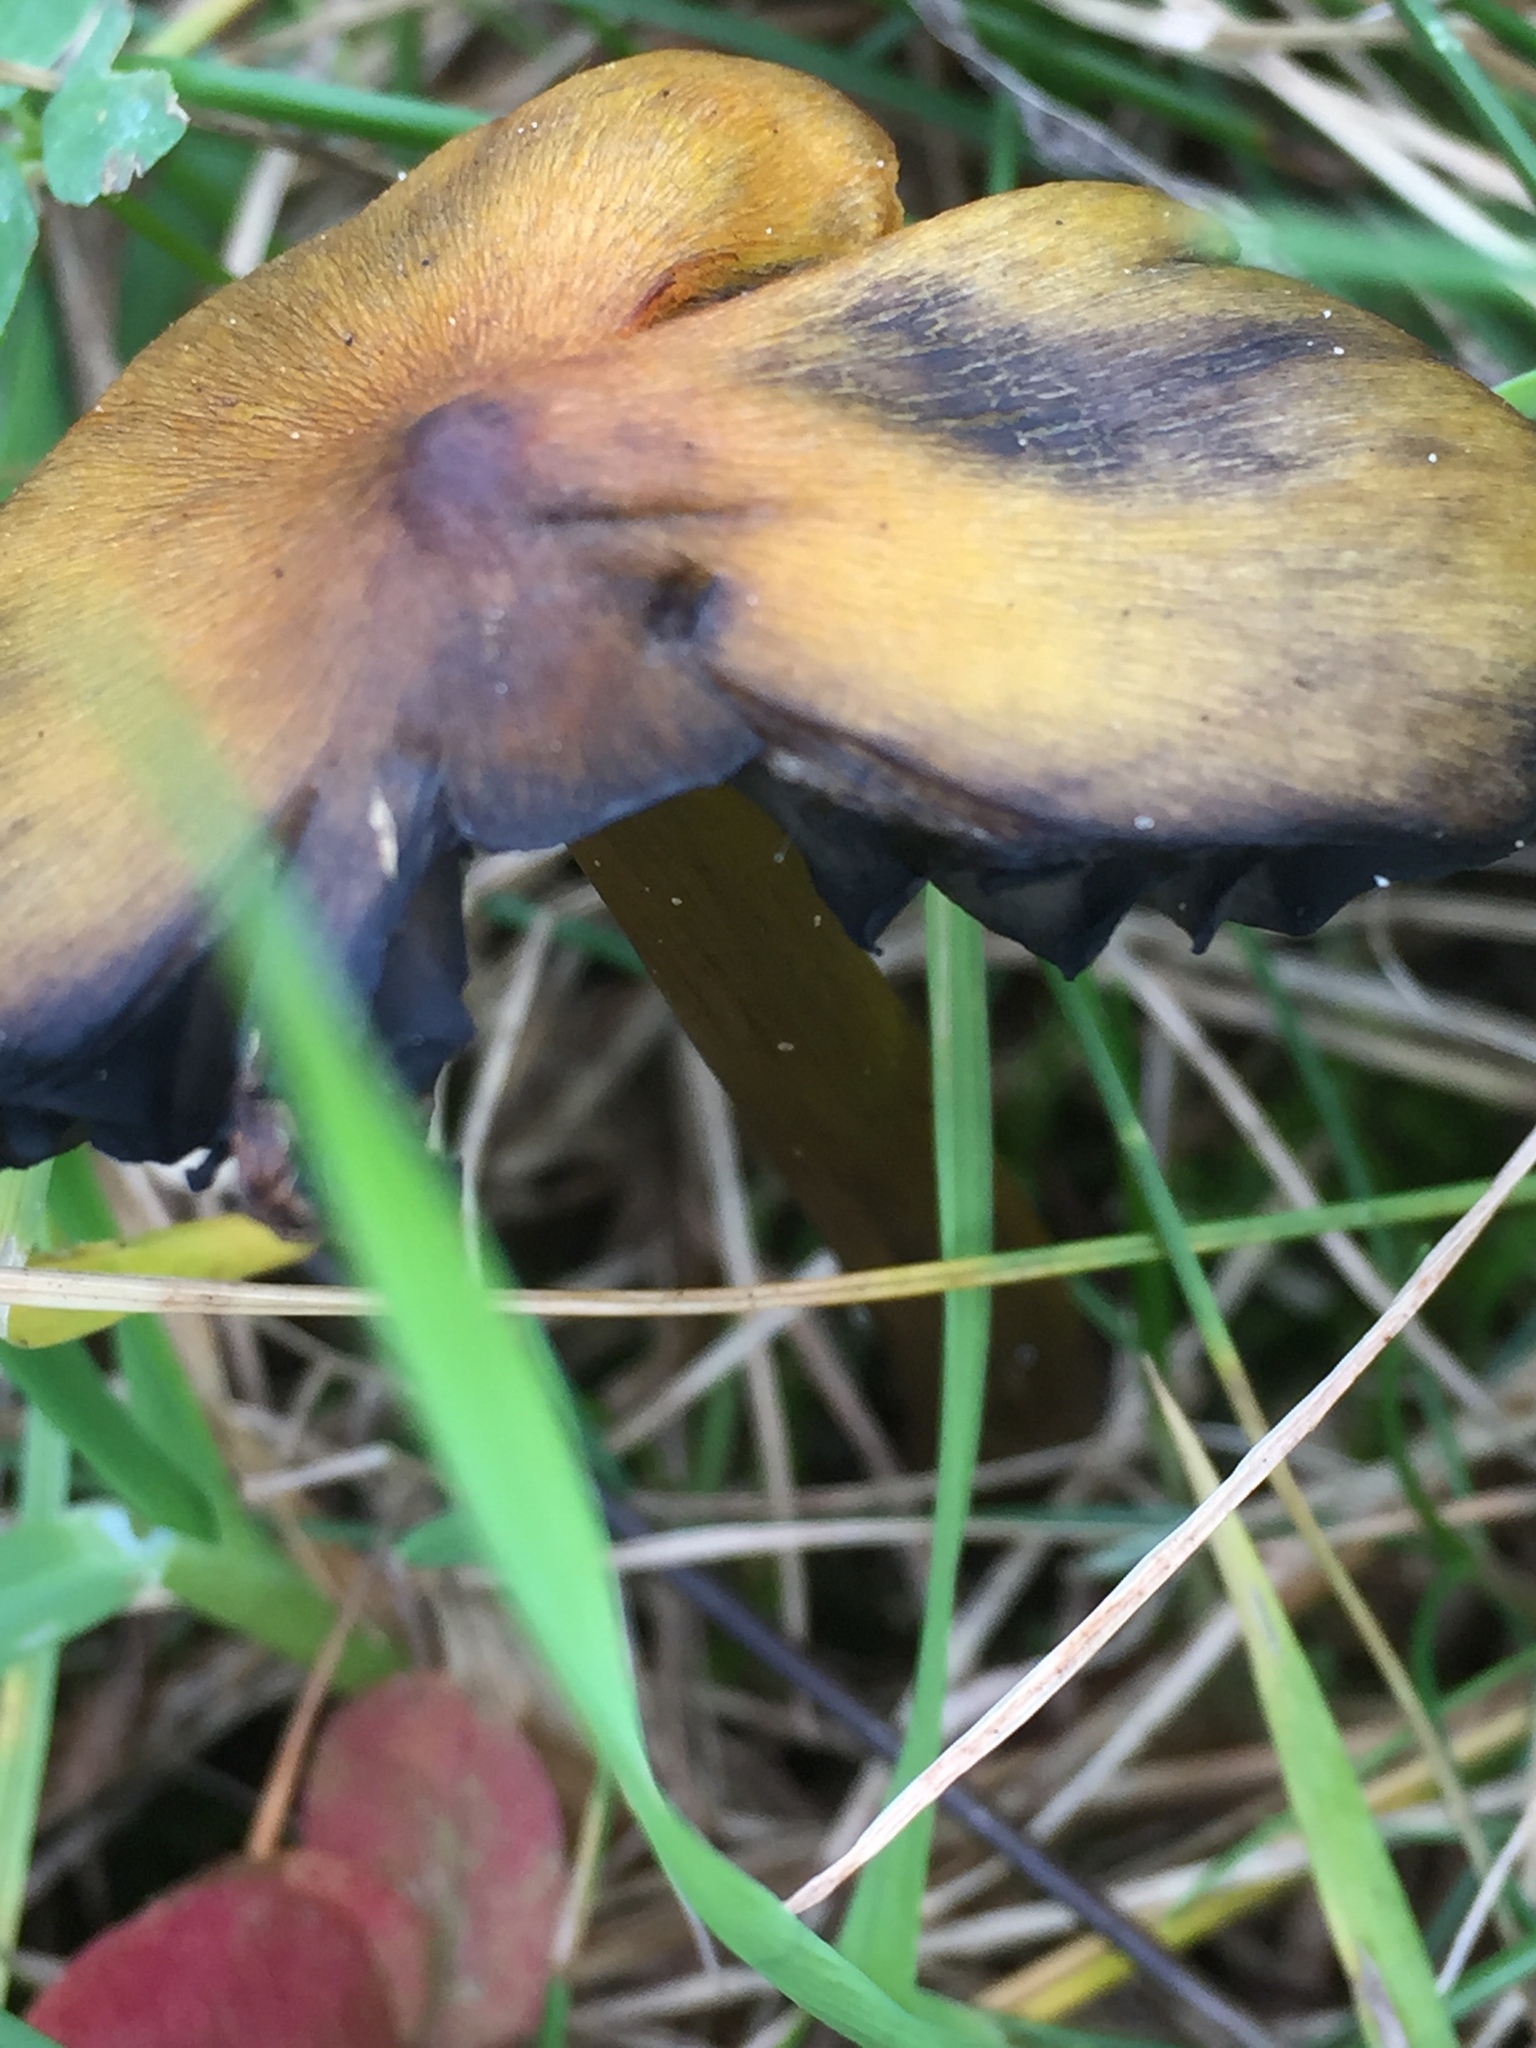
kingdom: Fungi
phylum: Basidiomycota
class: Agaricomycetes
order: Agaricales
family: Hygrophoraceae
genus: Hygrocybe
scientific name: Hygrocybe conica
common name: Blackening wax-cap
